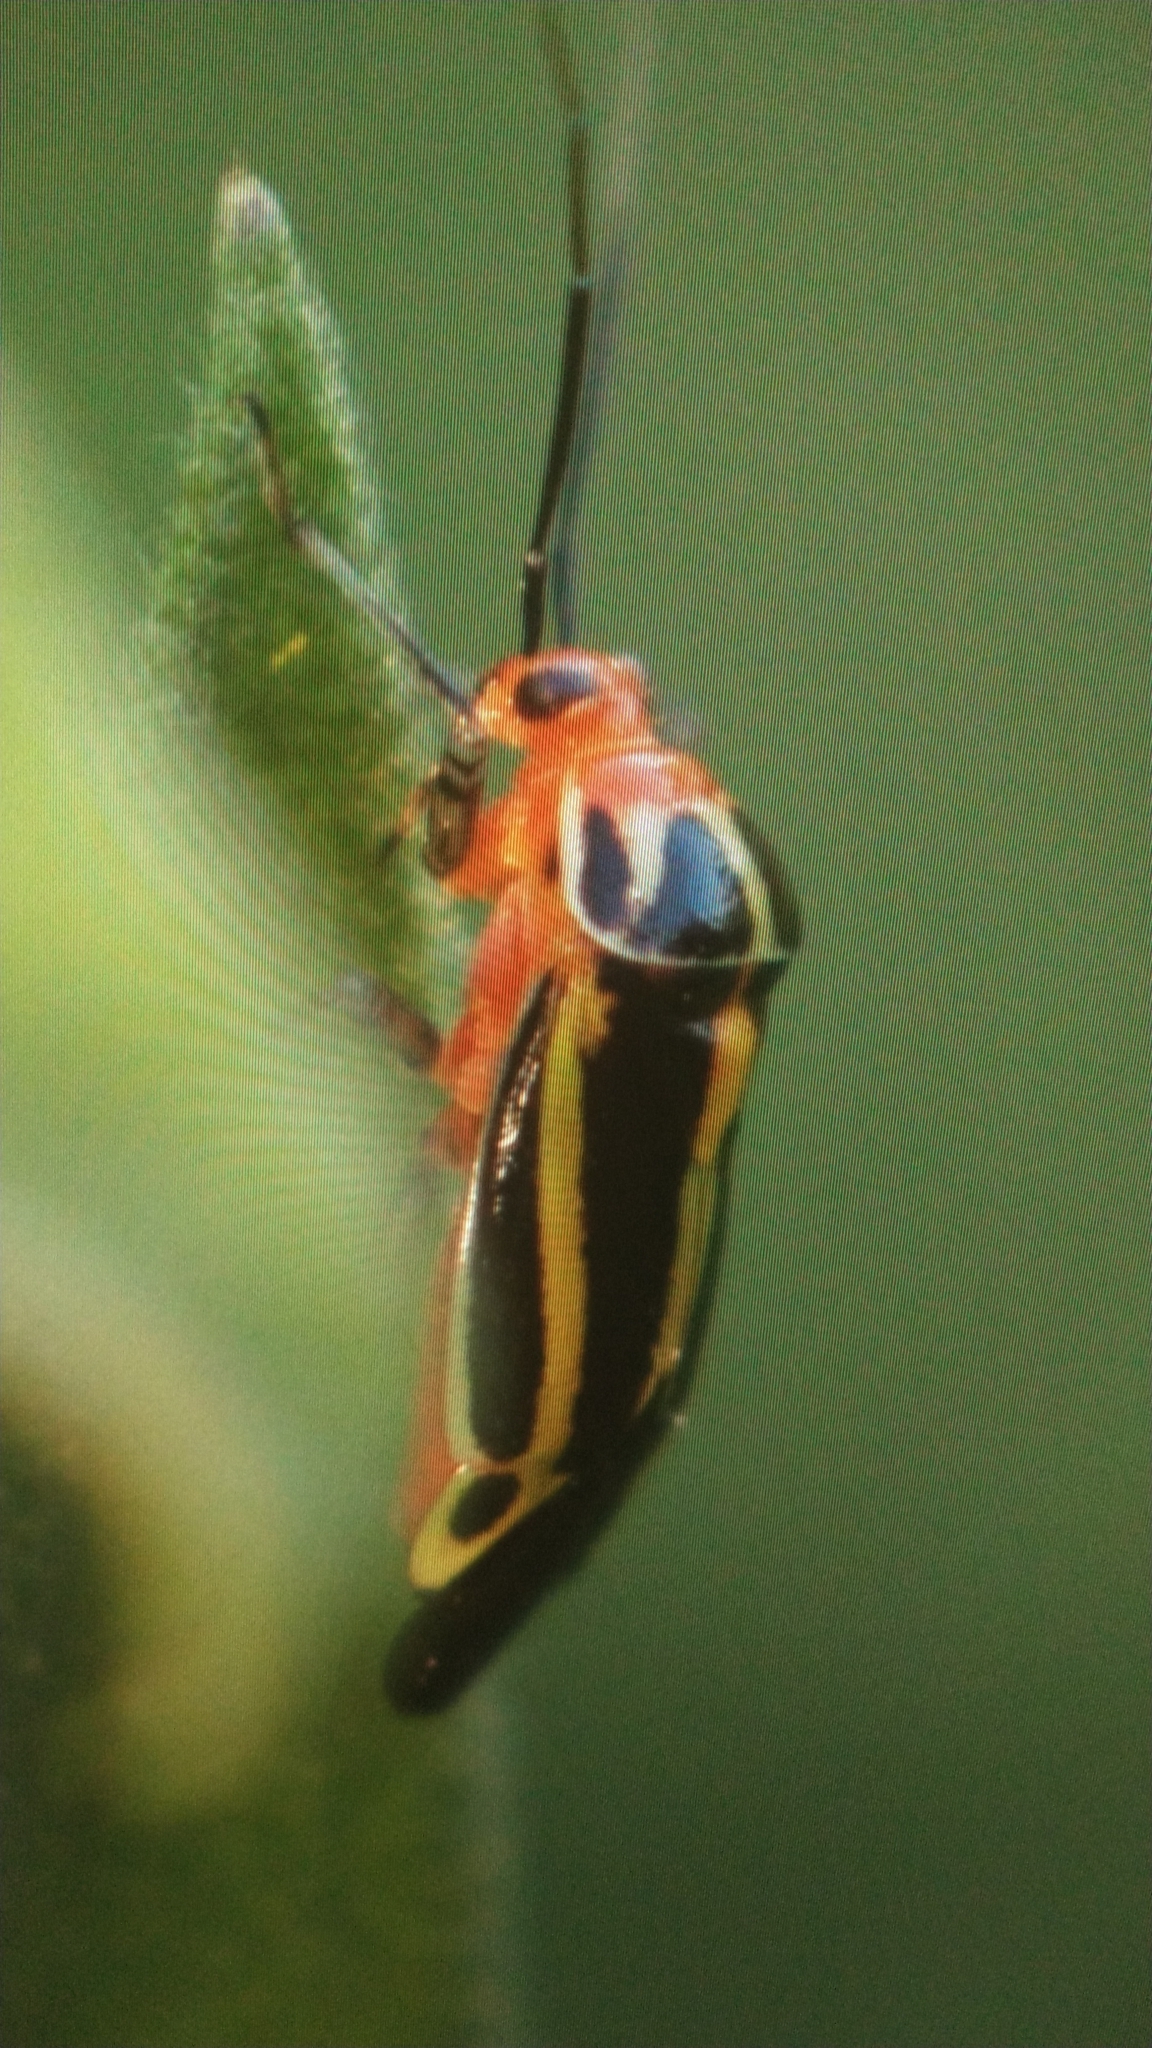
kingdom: Animalia
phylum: Arthropoda
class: Insecta
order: Hemiptera
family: Miridae
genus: Poecilocapsus
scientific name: Poecilocapsus lineatus
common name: Four-lined plant bug
